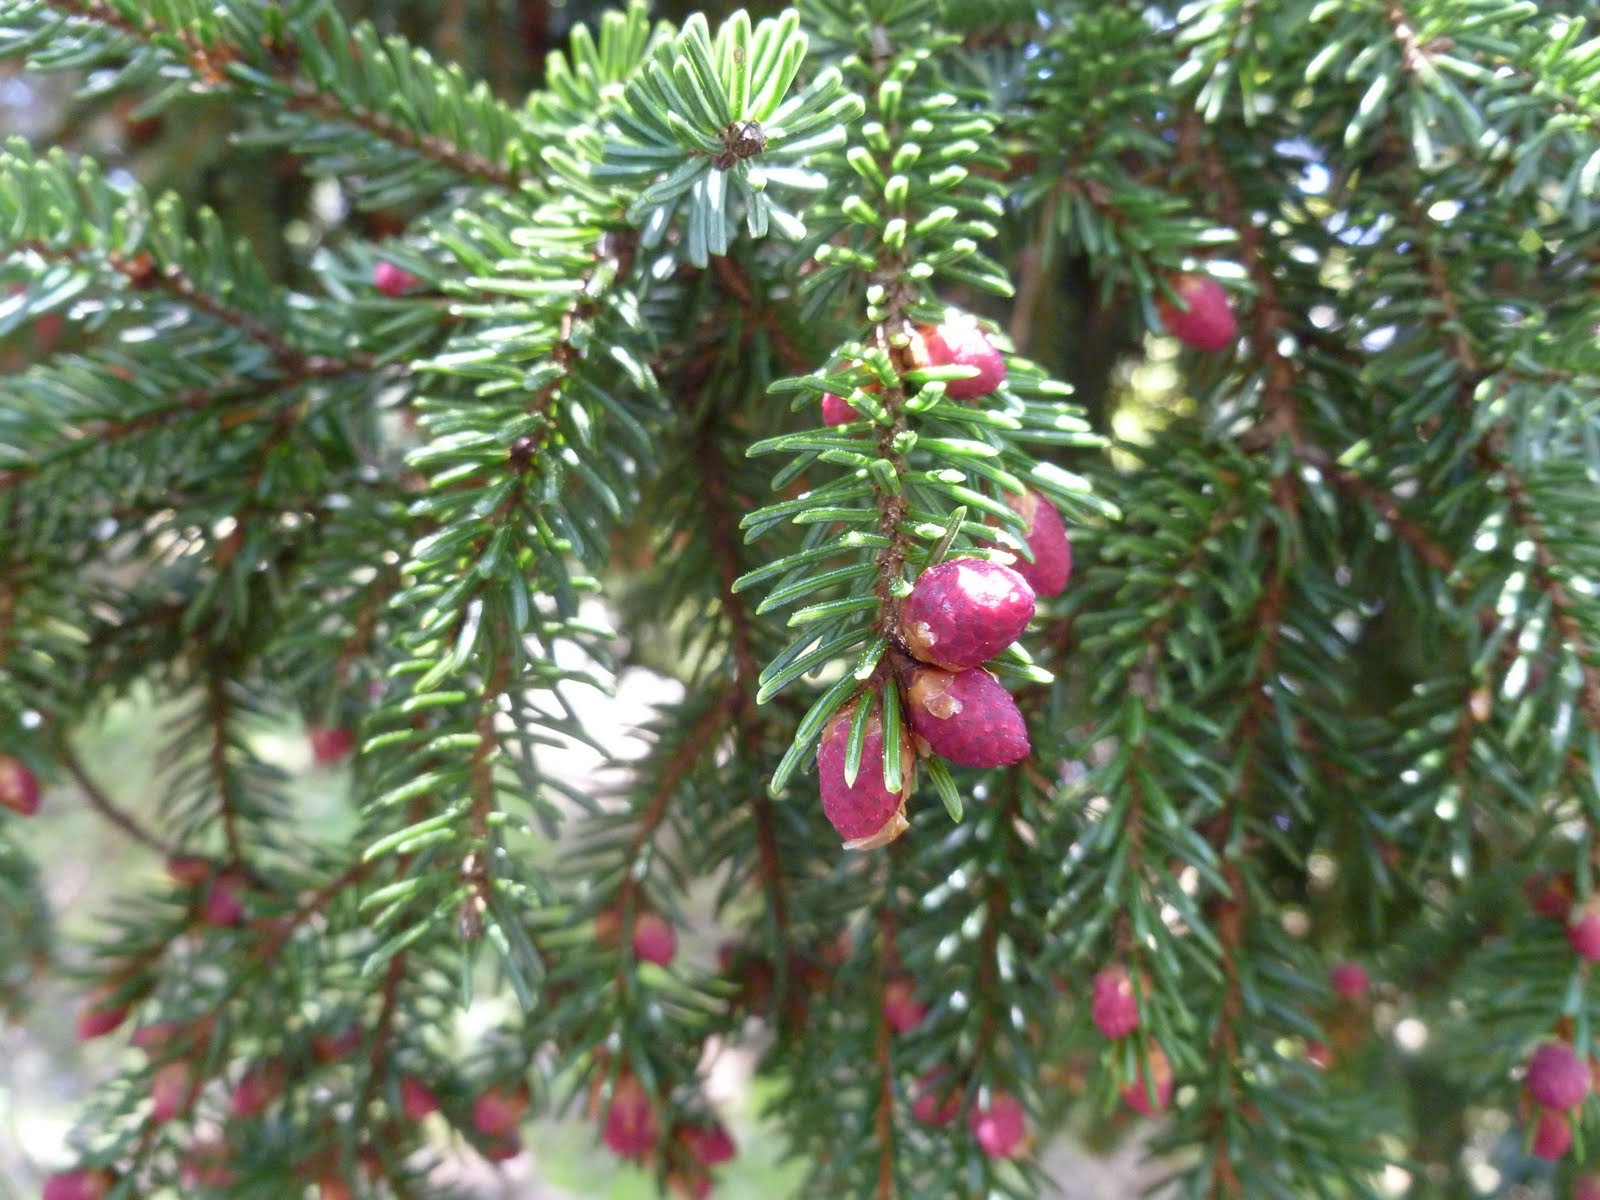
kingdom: Plantae
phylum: Tracheophyta
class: Pinopsida
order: Pinales
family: Pinaceae
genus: Picea
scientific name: Picea abies
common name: Norway spruce
